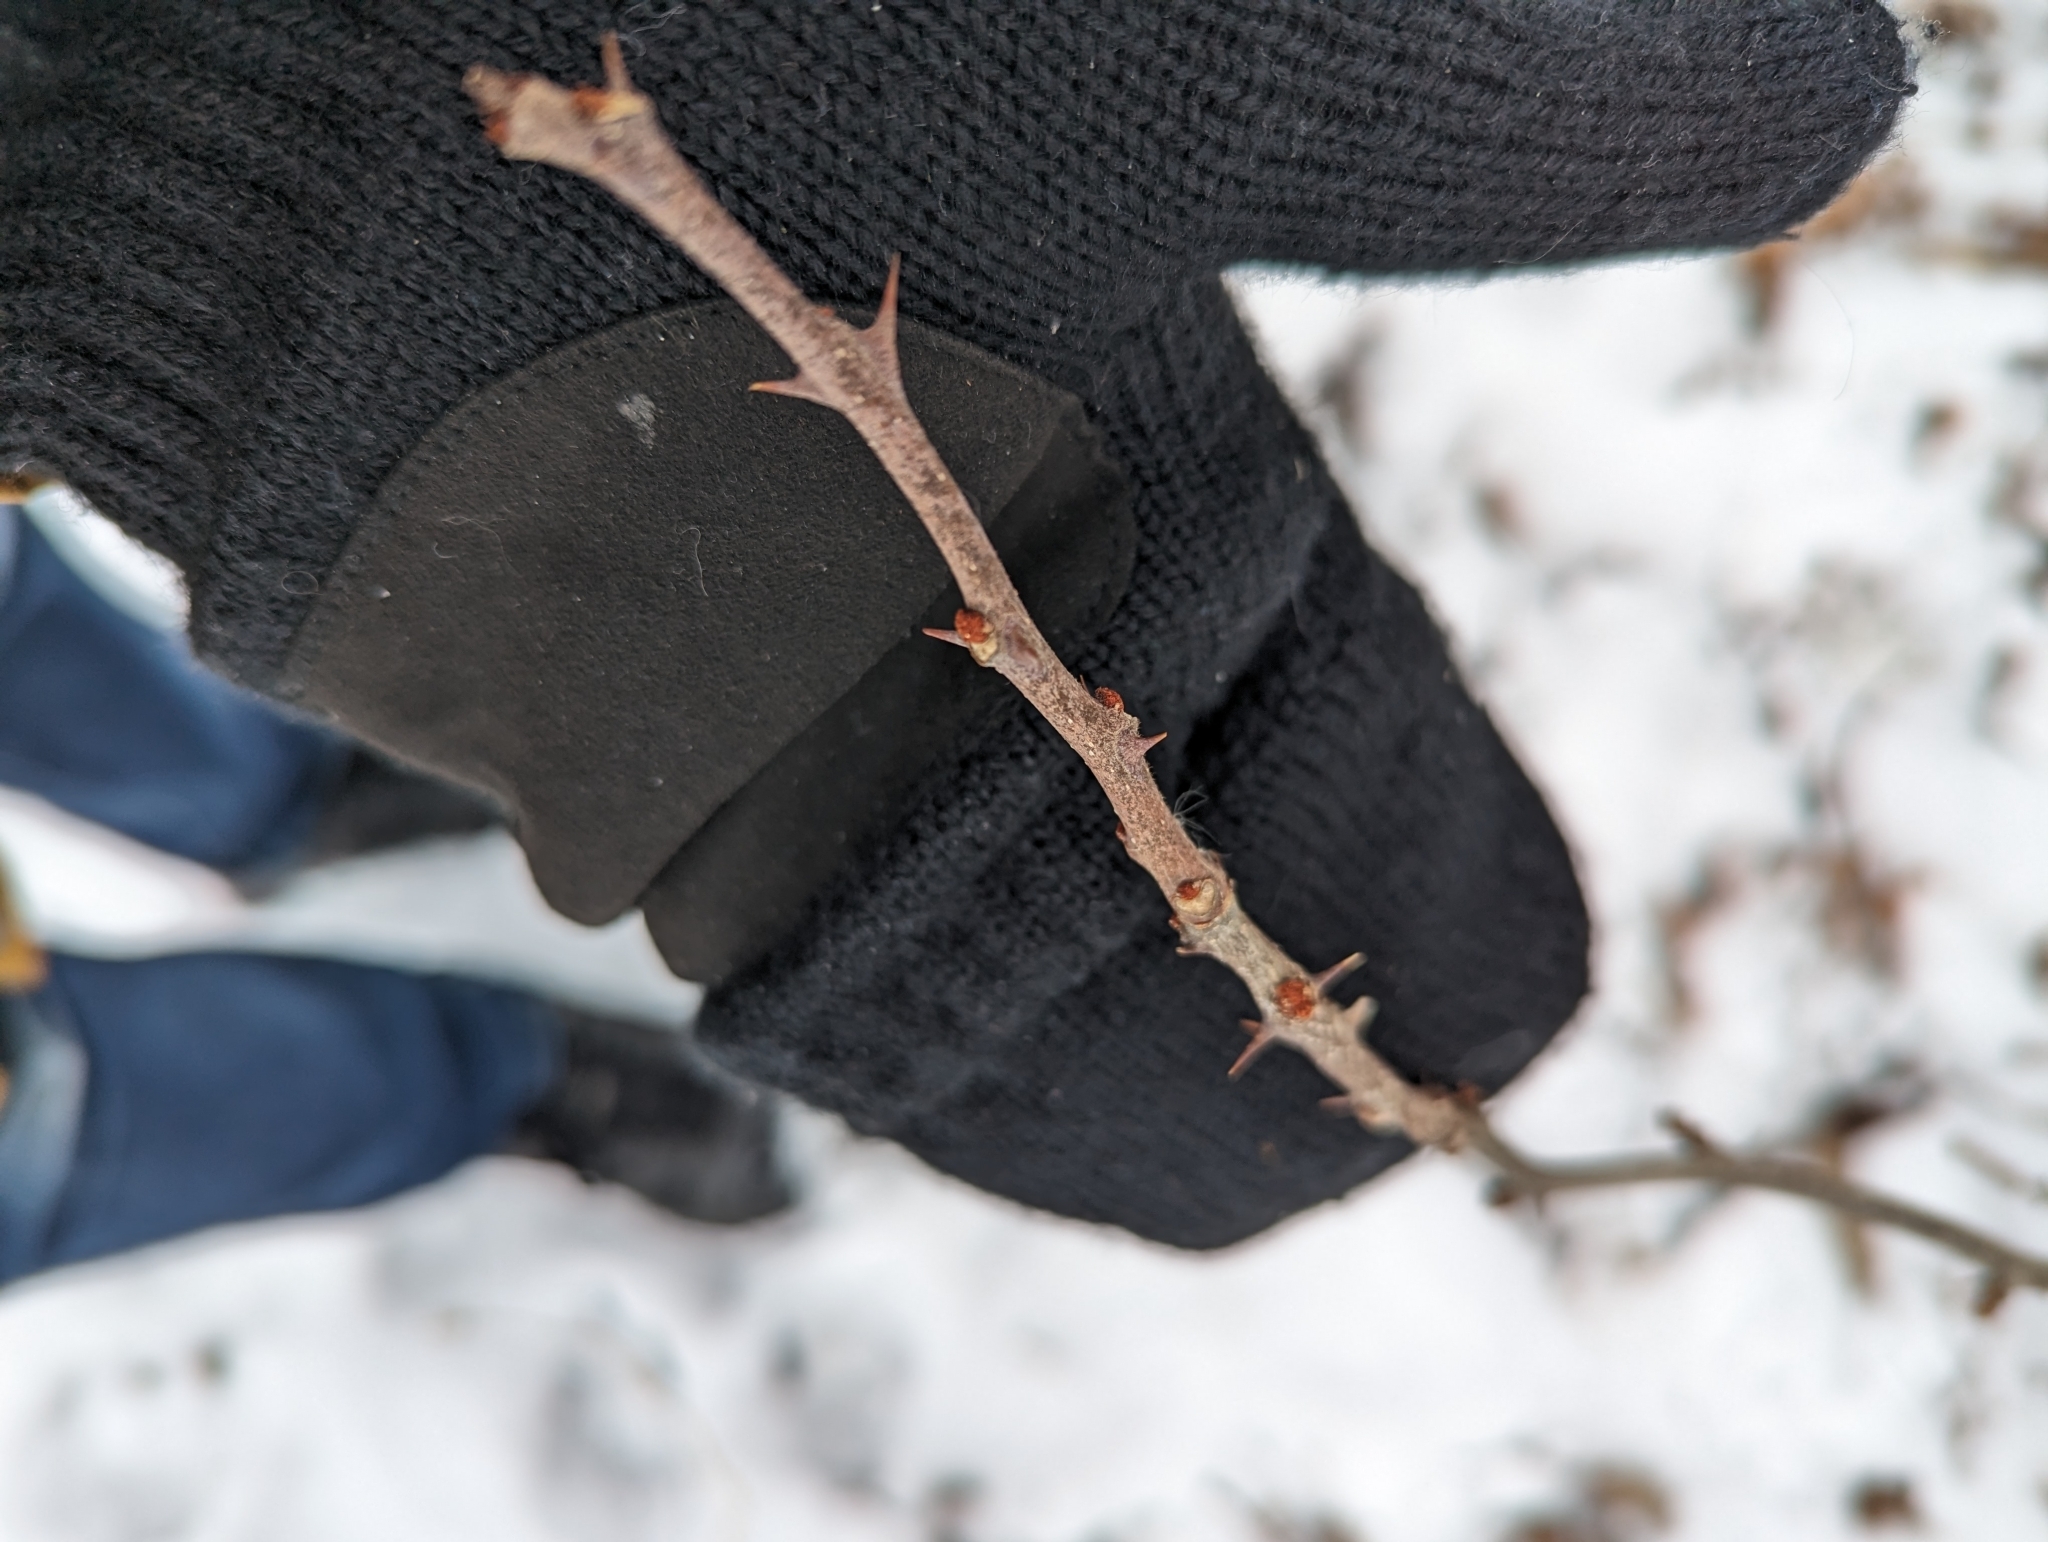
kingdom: Plantae
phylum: Tracheophyta
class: Magnoliopsida
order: Sapindales
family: Rutaceae
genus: Zanthoxylum
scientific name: Zanthoxylum americanum
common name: Northern prickly-ash
